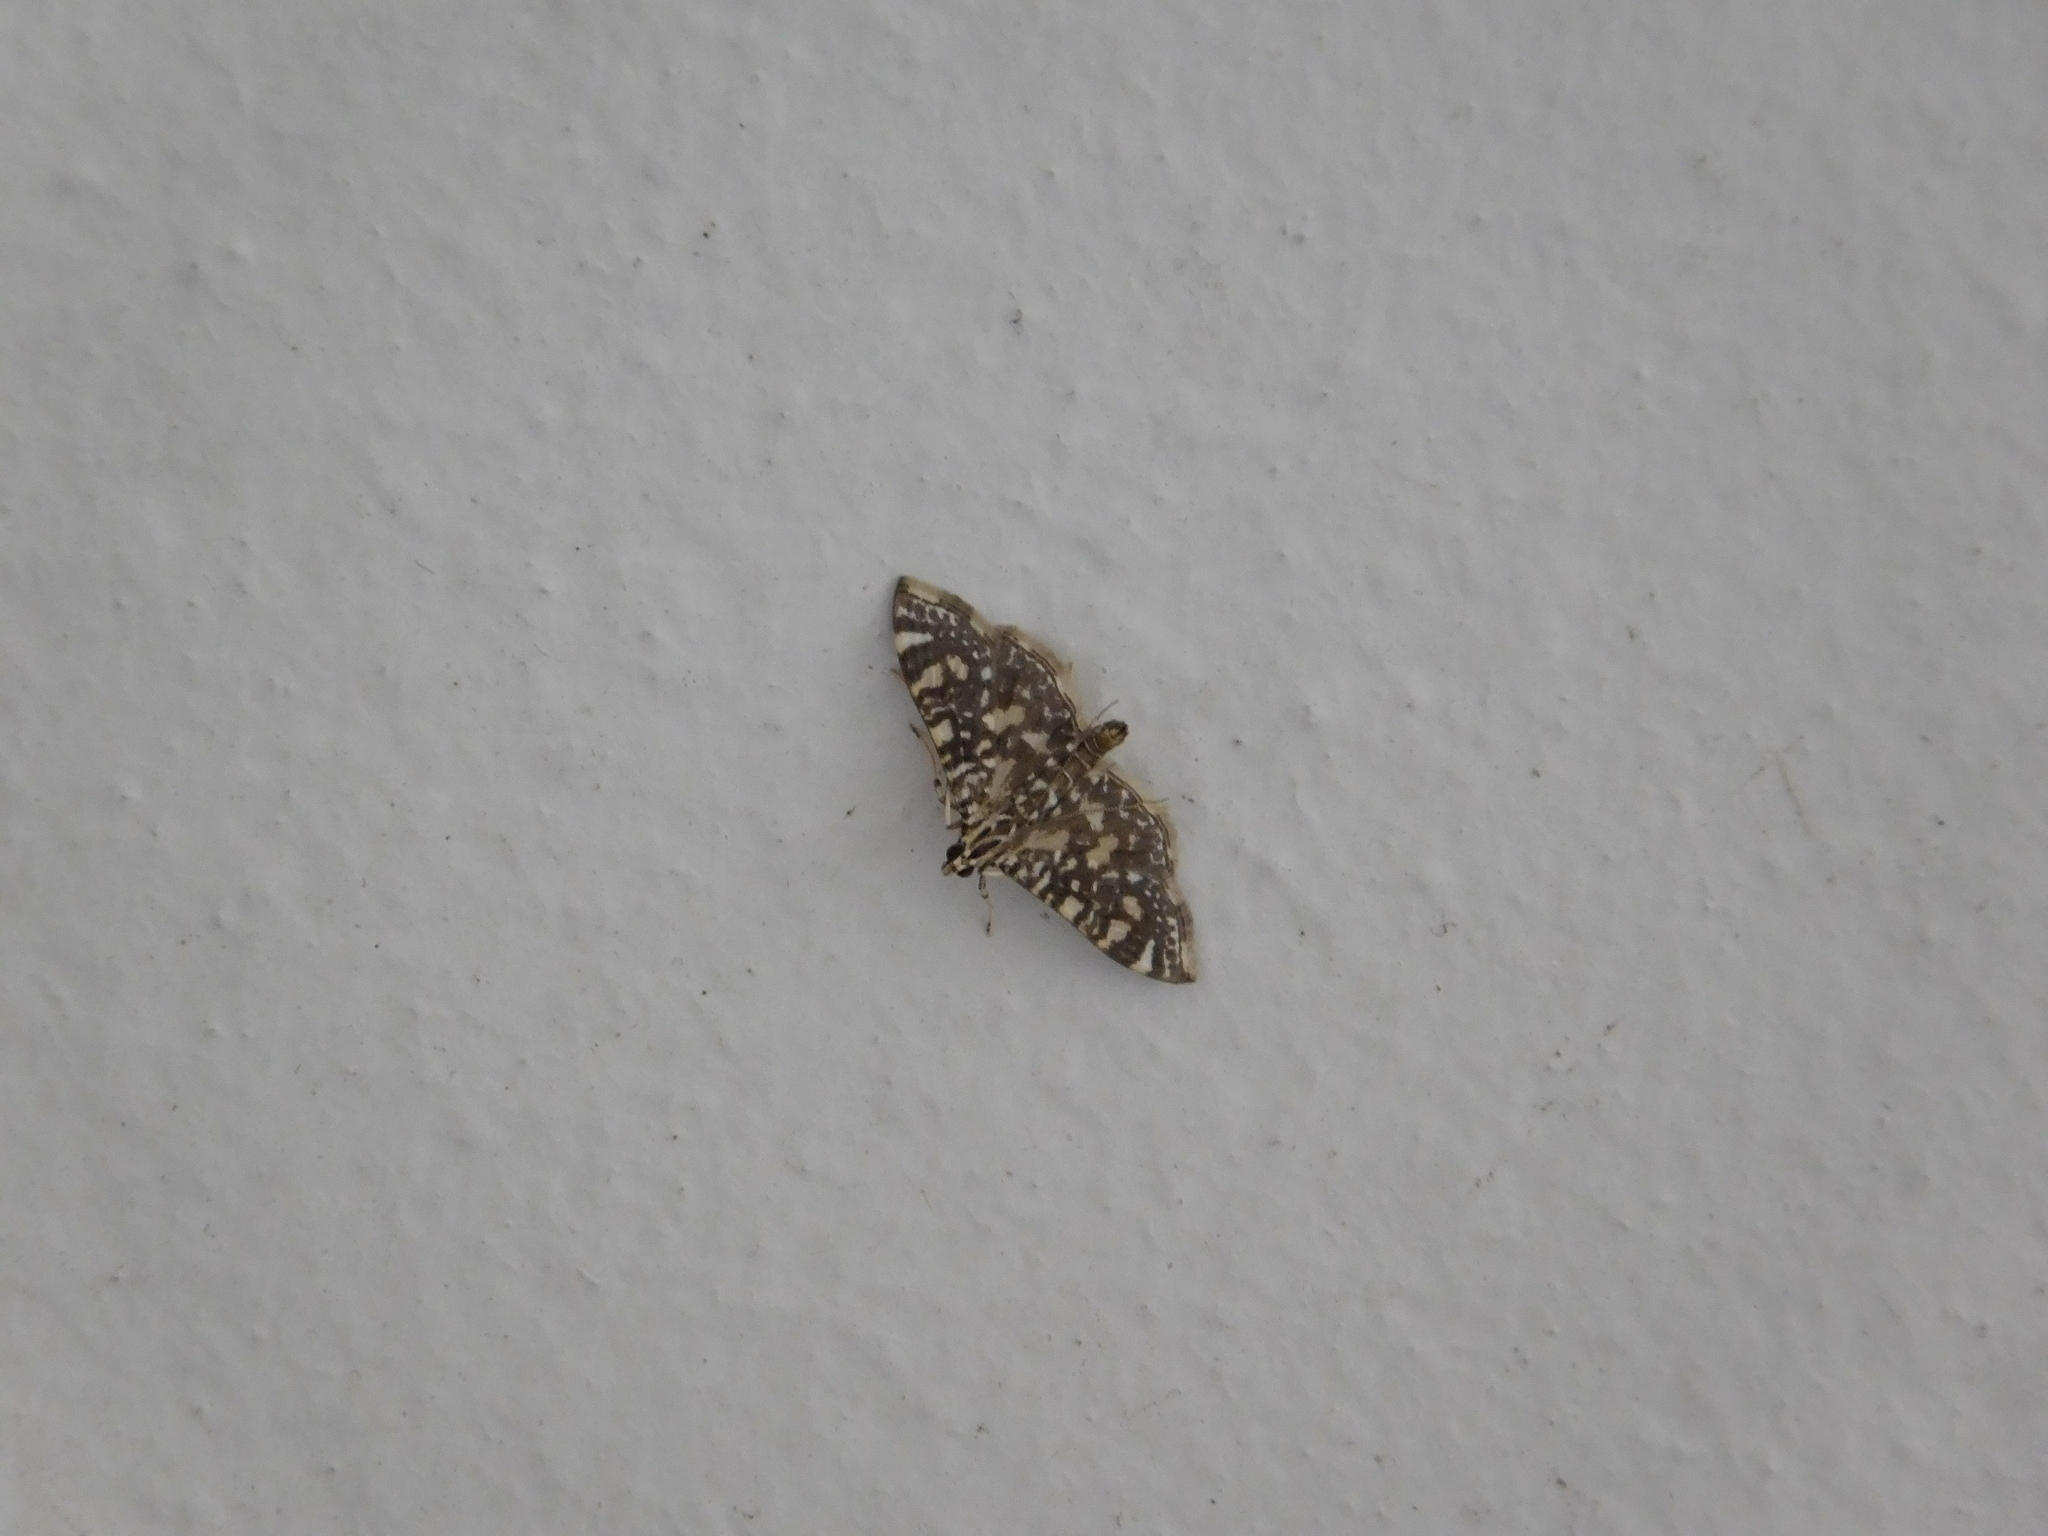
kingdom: Animalia
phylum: Arthropoda
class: Insecta
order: Lepidoptera
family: Crambidae
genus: Glyphodes
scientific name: Glyphodes onychinalis
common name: Swan plant moth
